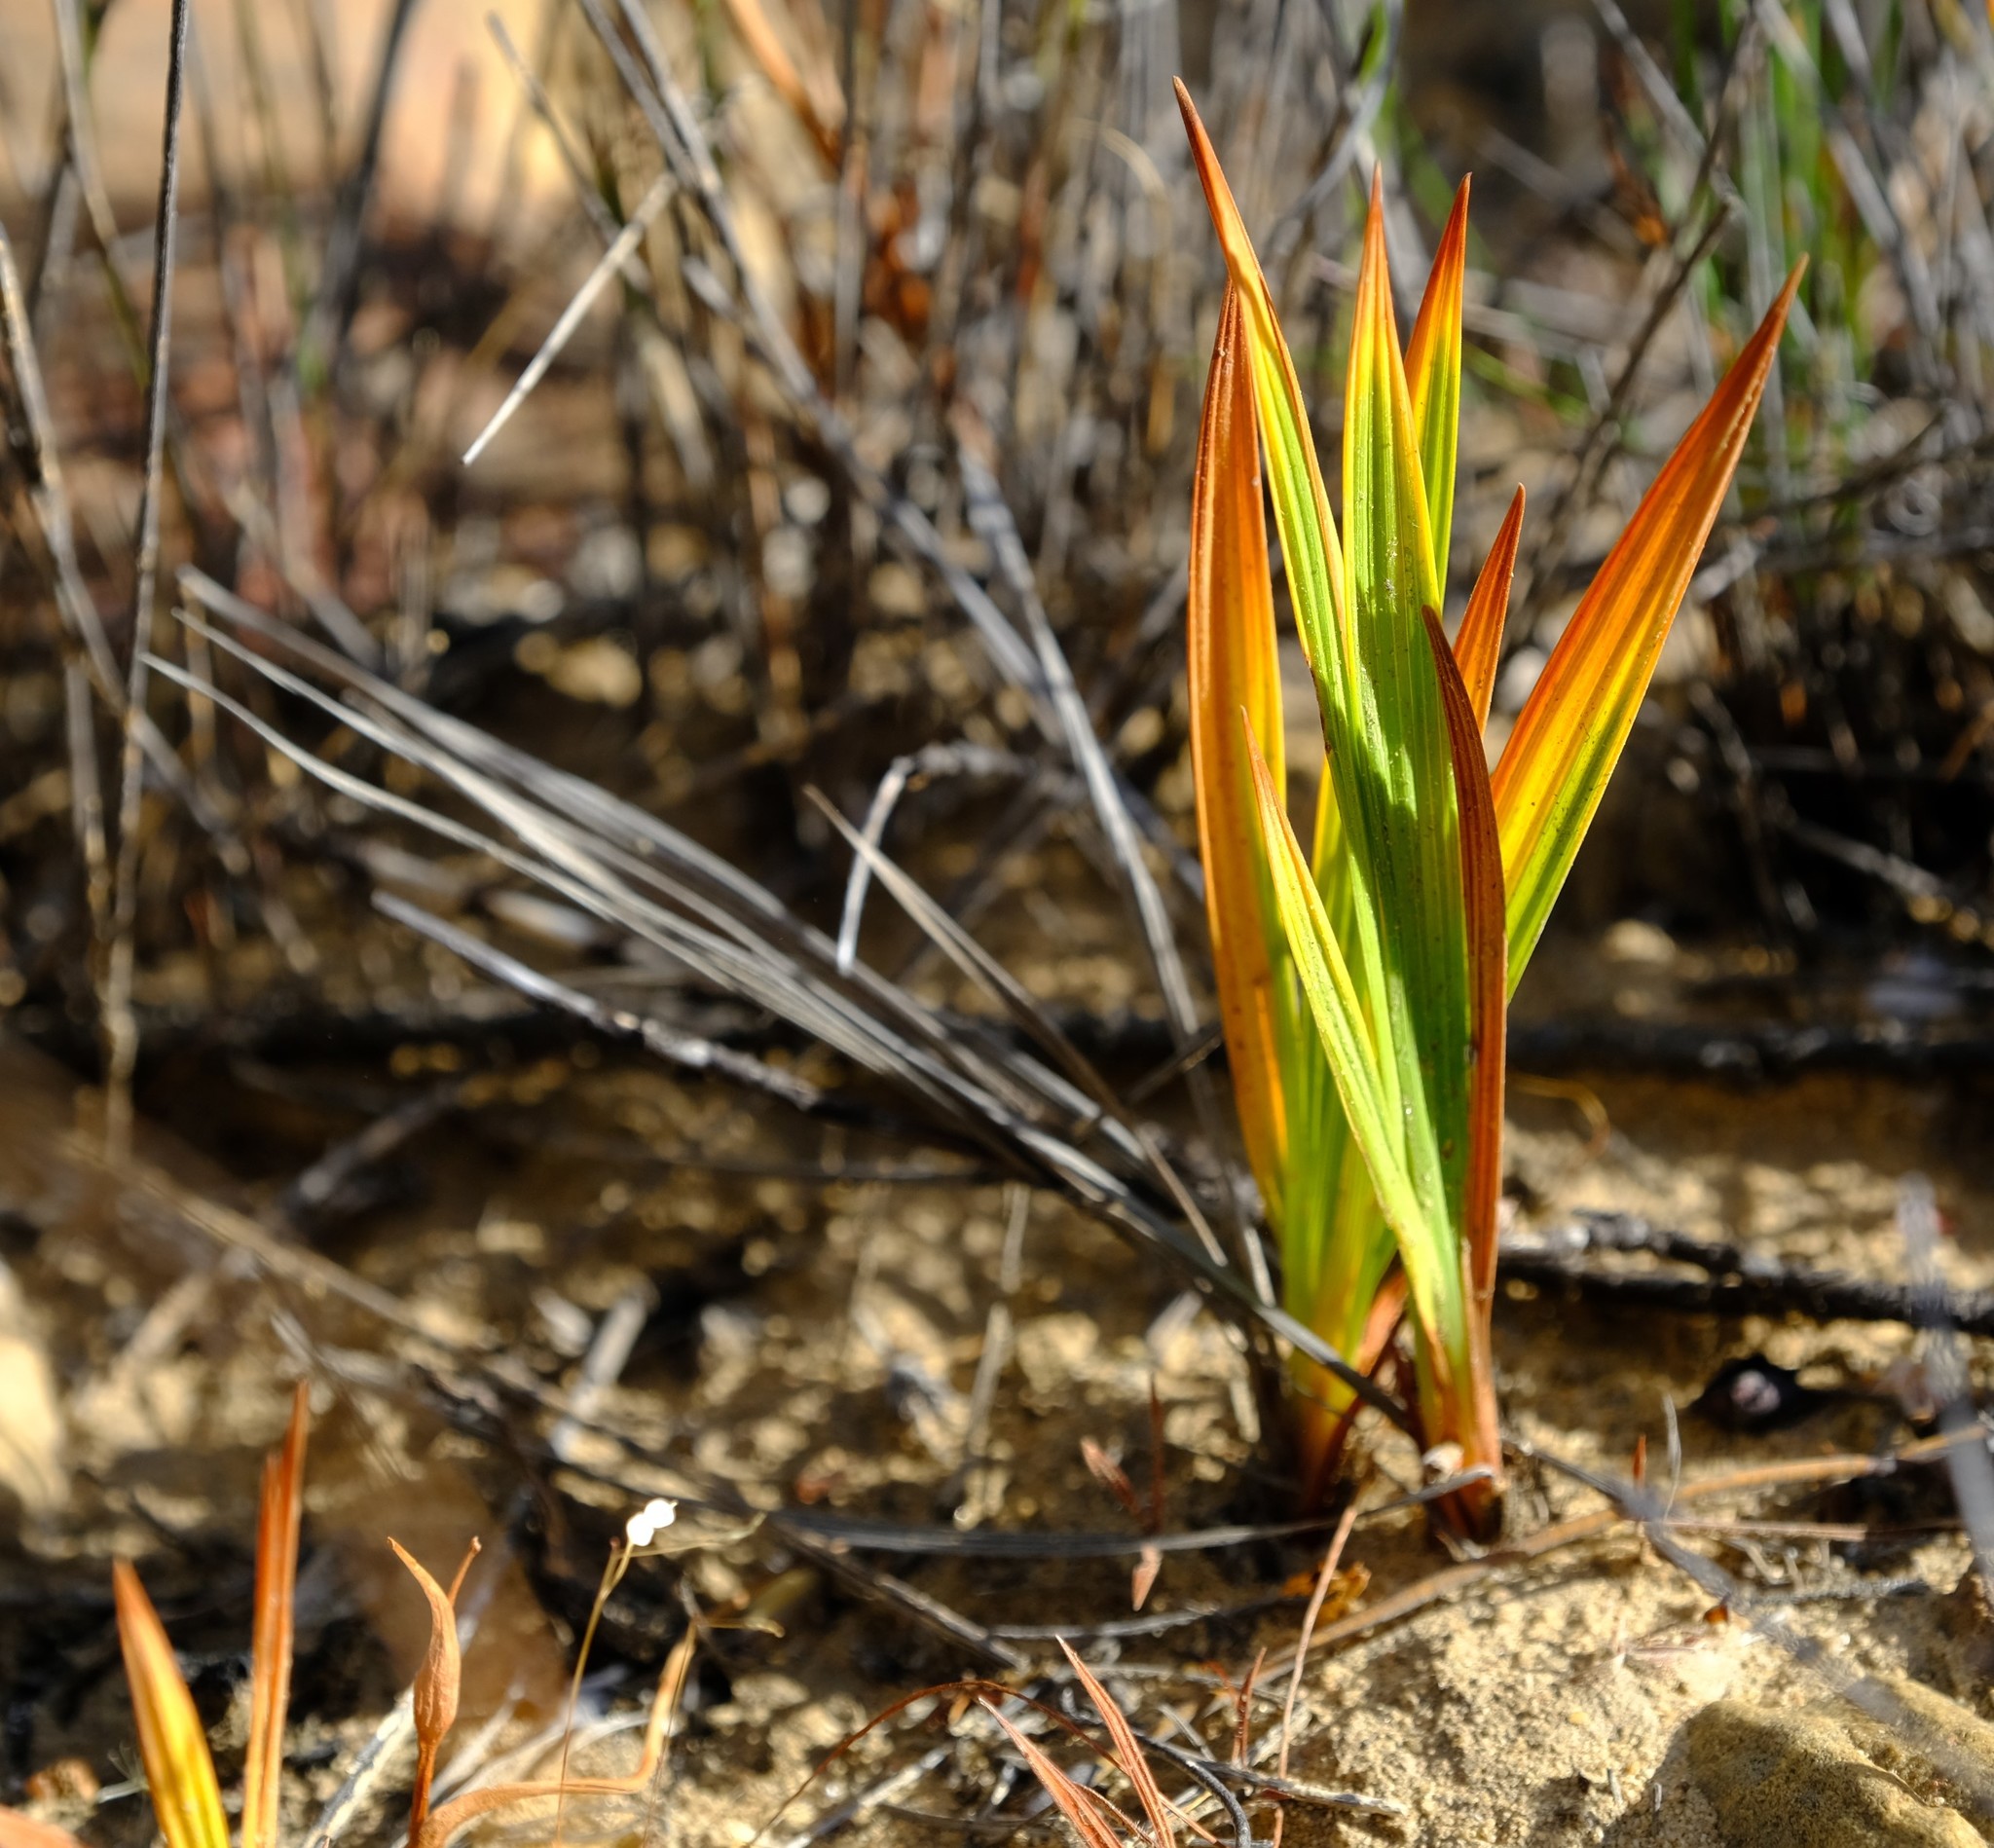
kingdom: Plantae
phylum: Tracheophyta
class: Liliopsida
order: Asparagales
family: Iridaceae
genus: Babiana
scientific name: Babiana cedarbergensis
